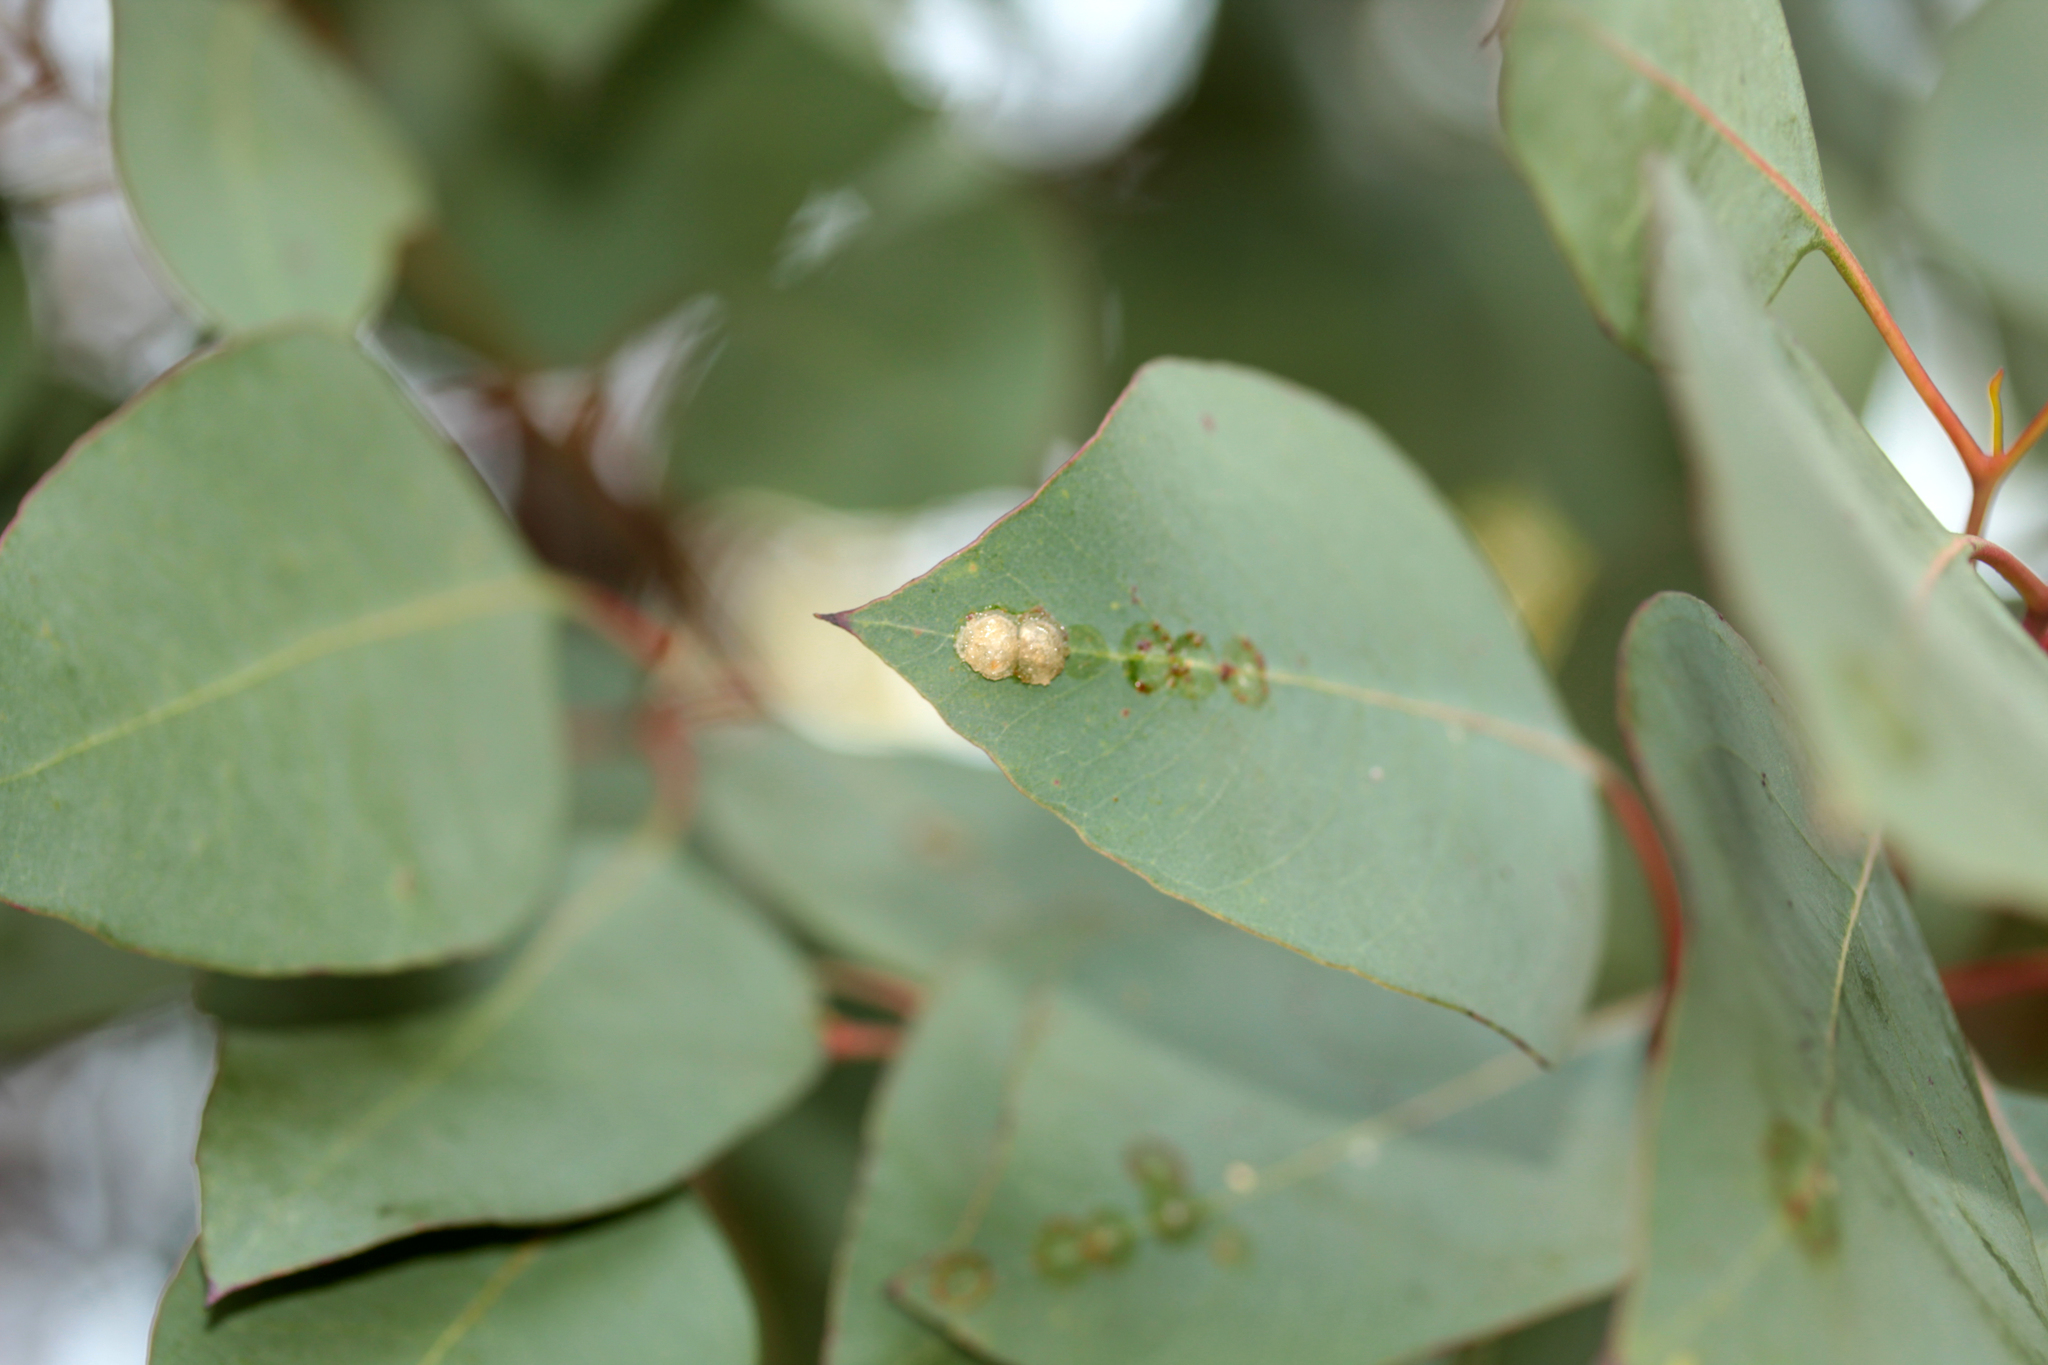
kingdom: Animalia
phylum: Arthropoda
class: Insecta
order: Hemiptera
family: Aphalaridae
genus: Glycaspis
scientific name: Glycaspis brimblecombei
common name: Red gum lerp psyllid
